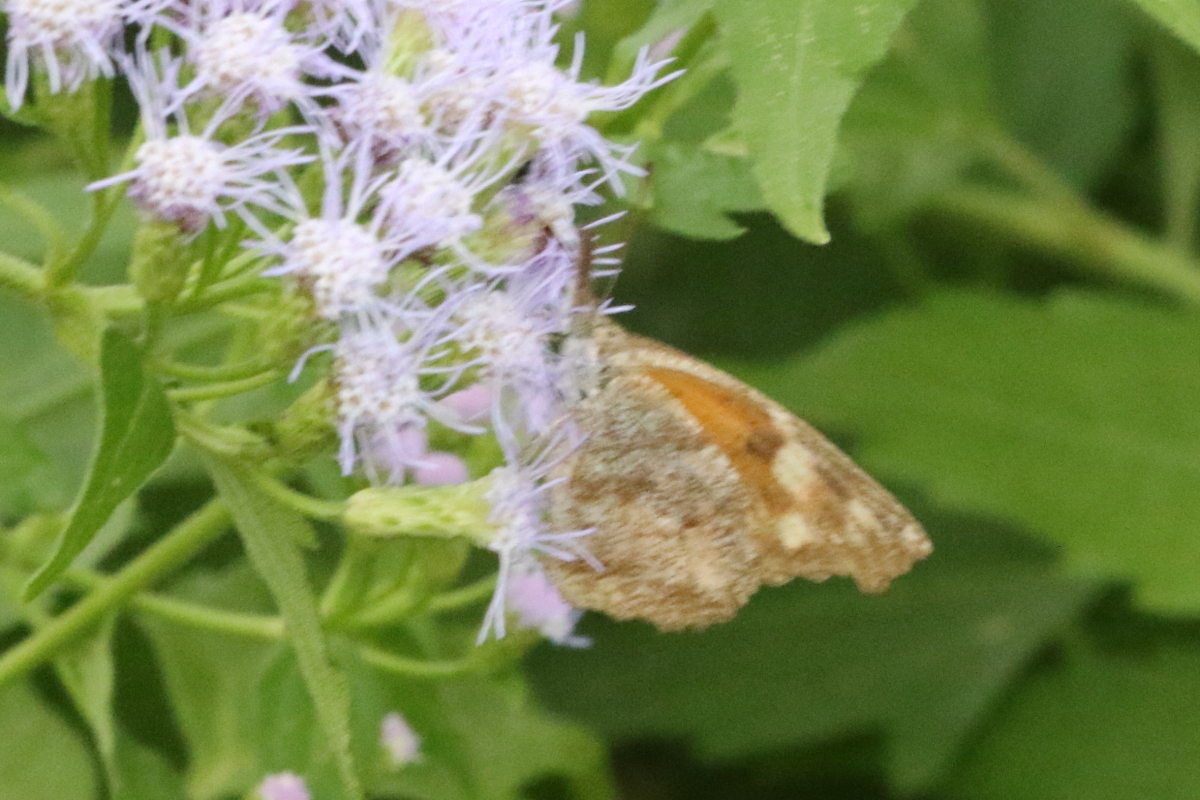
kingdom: Animalia
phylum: Arthropoda
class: Insecta
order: Lepidoptera
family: Nymphalidae
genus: Libytheana
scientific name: Libytheana carinenta
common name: American snout
